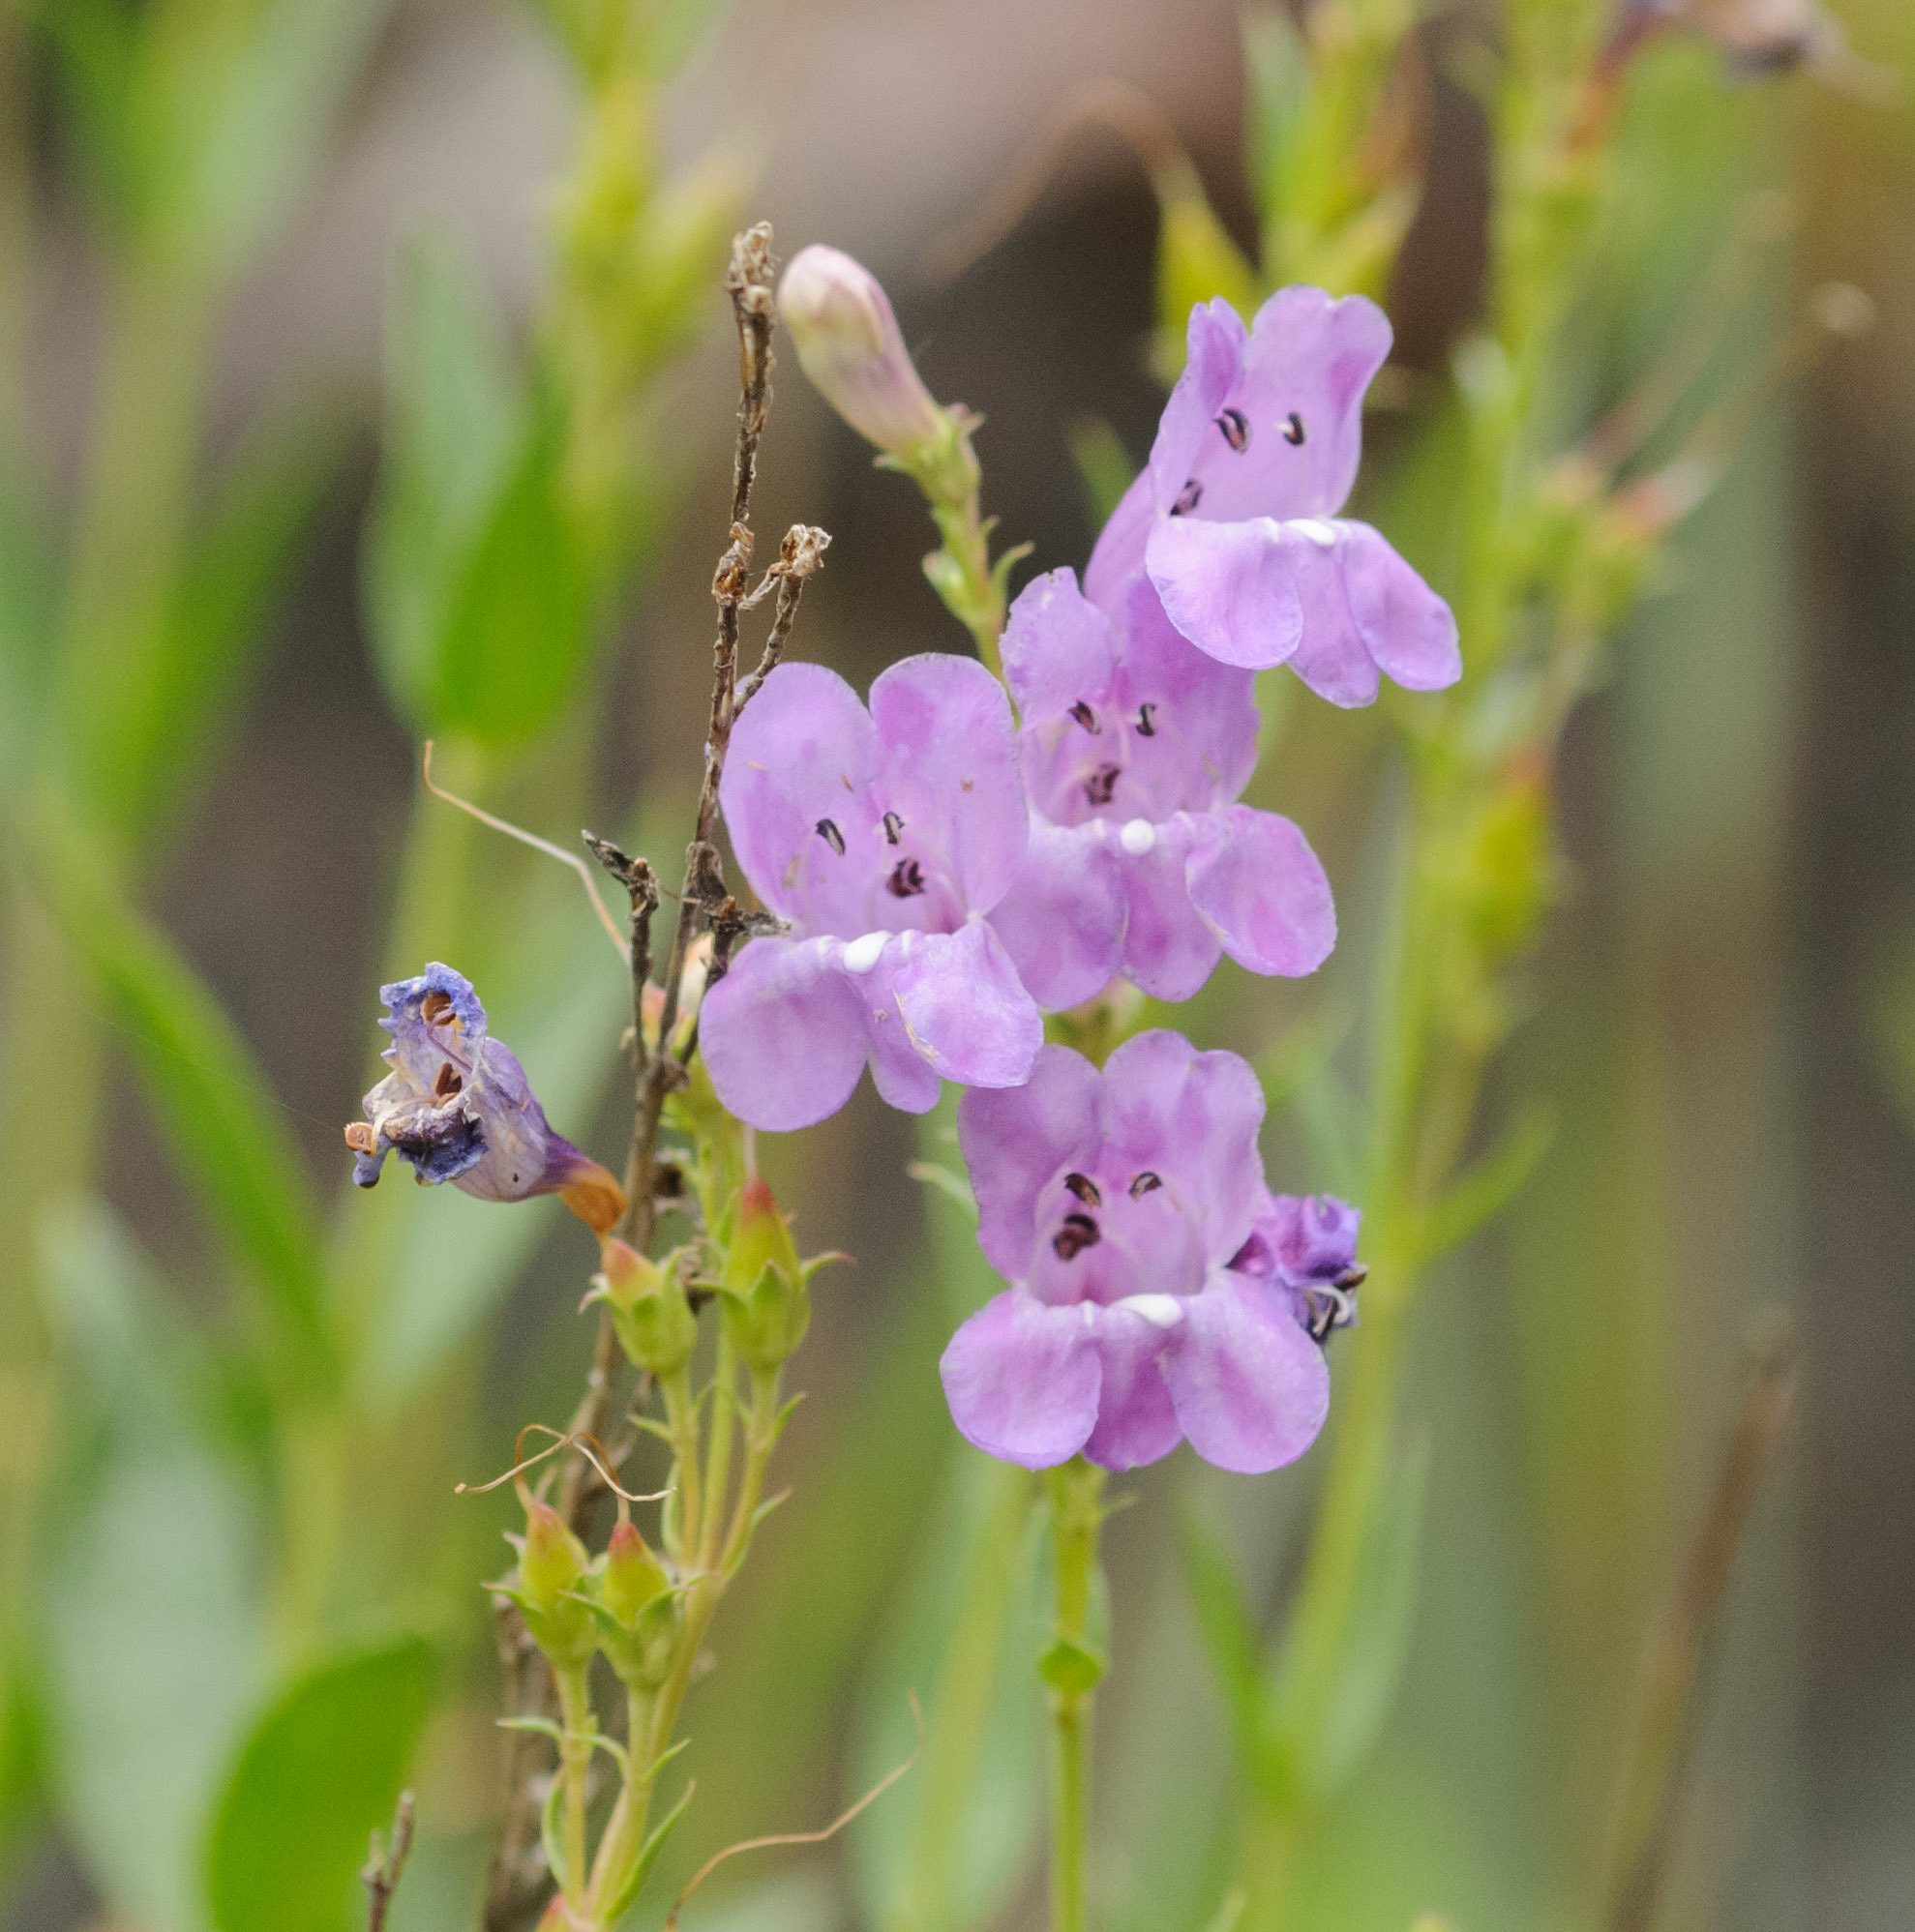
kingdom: Plantae
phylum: Tracheophyta
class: Magnoliopsida
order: Lamiales
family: Plantaginaceae
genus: Penstemon
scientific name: Penstemon platyphyllus
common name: Broadleaf penstemon
